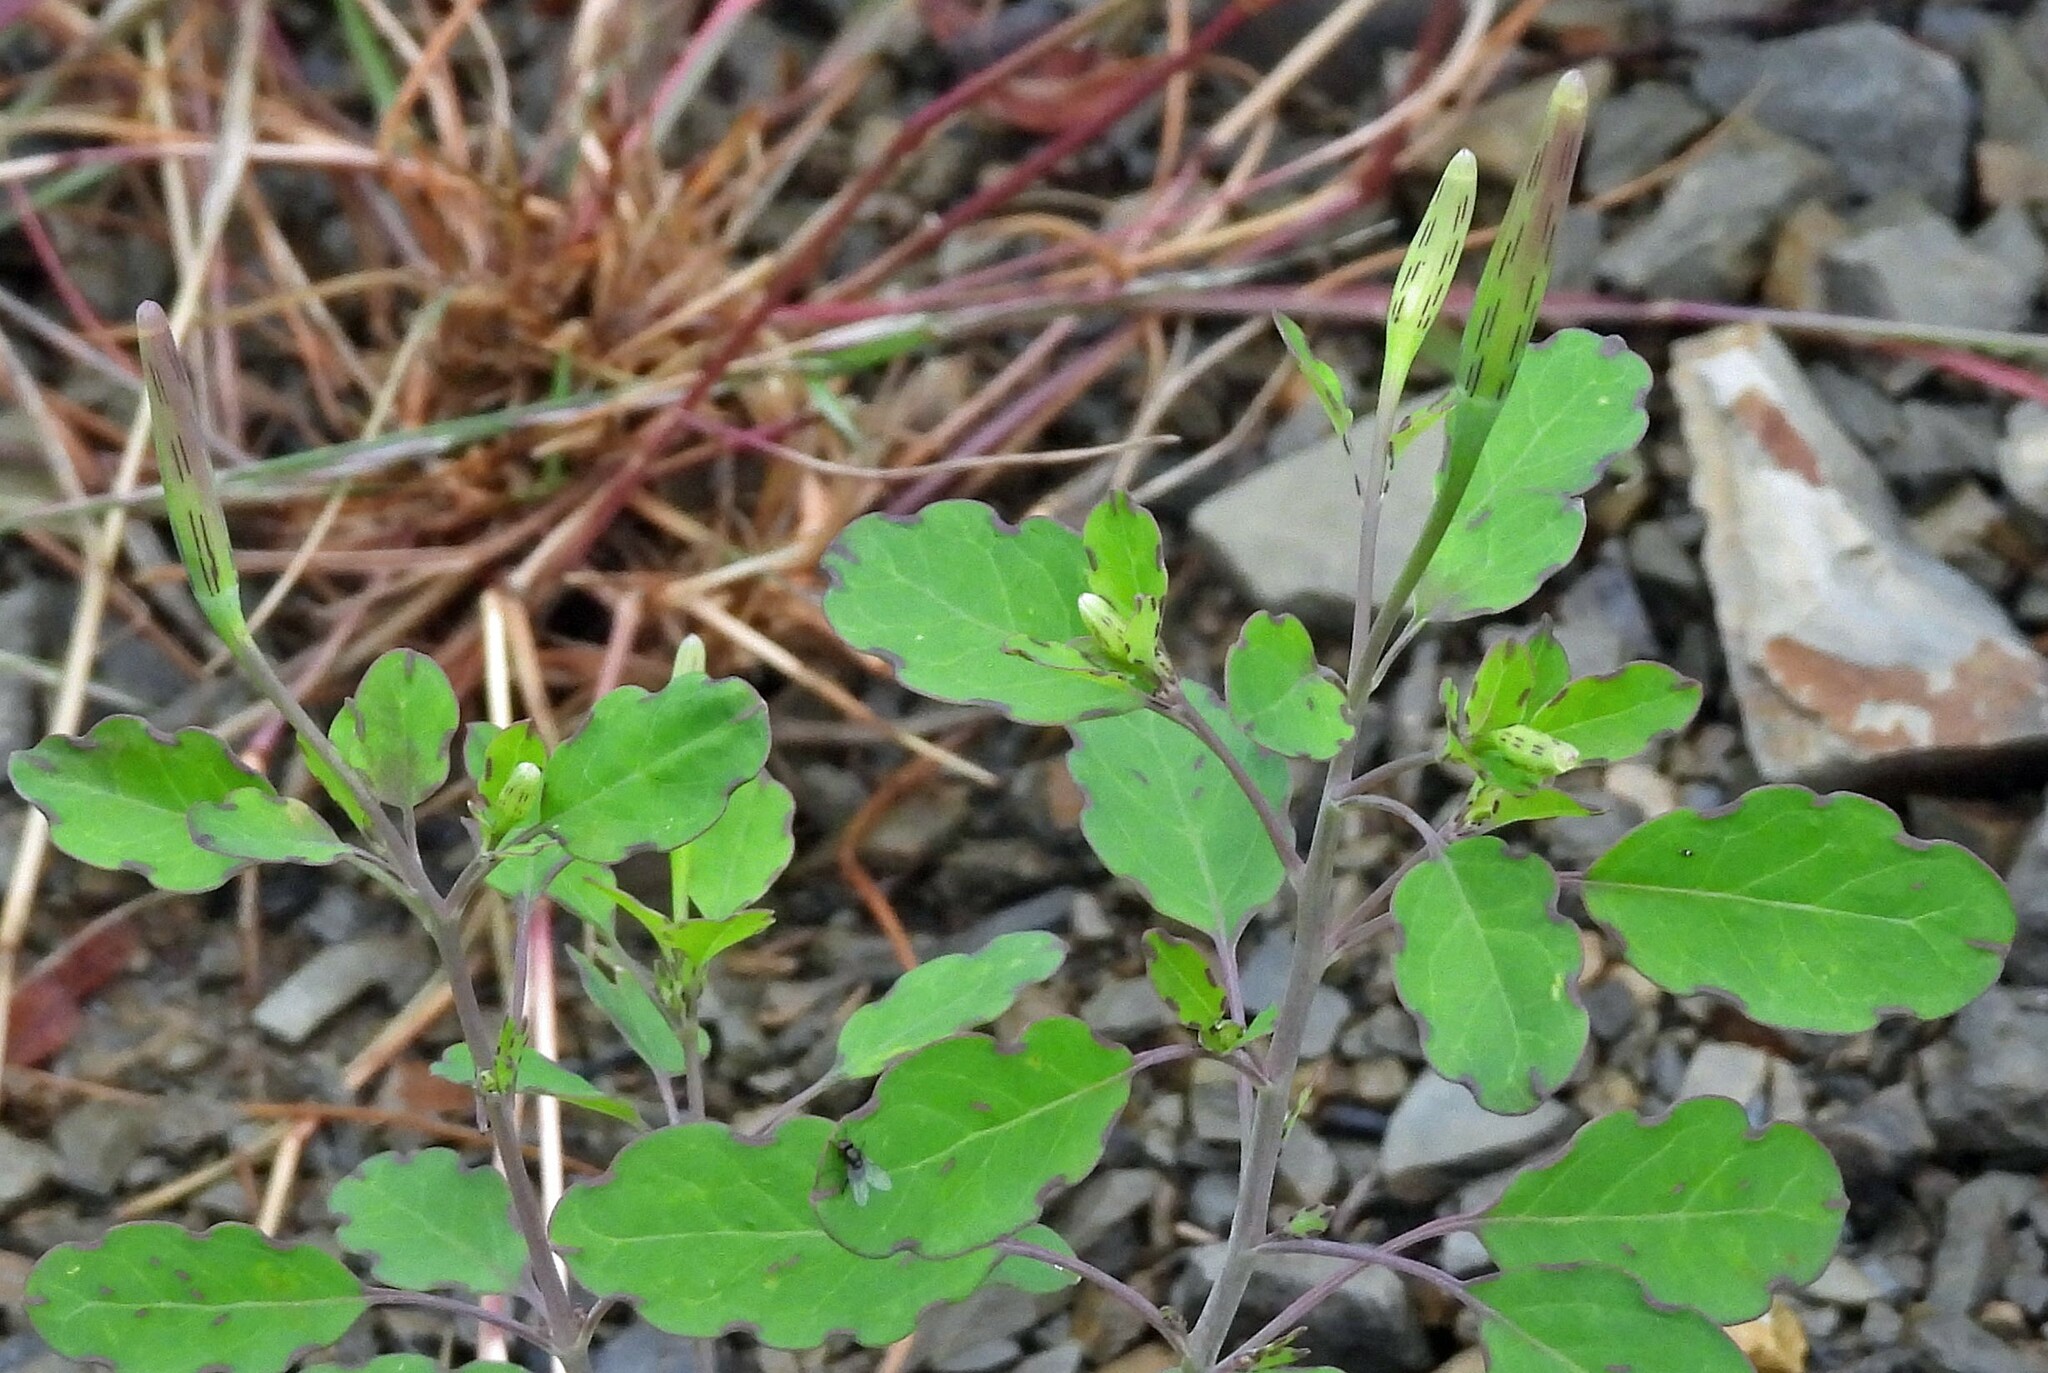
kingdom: Plantae
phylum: Tracheophyta
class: Magnoliopsida
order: Asterales
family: Asteraceae
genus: Porophyllum
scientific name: Porophyllum ruderale
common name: Yerba porosa
